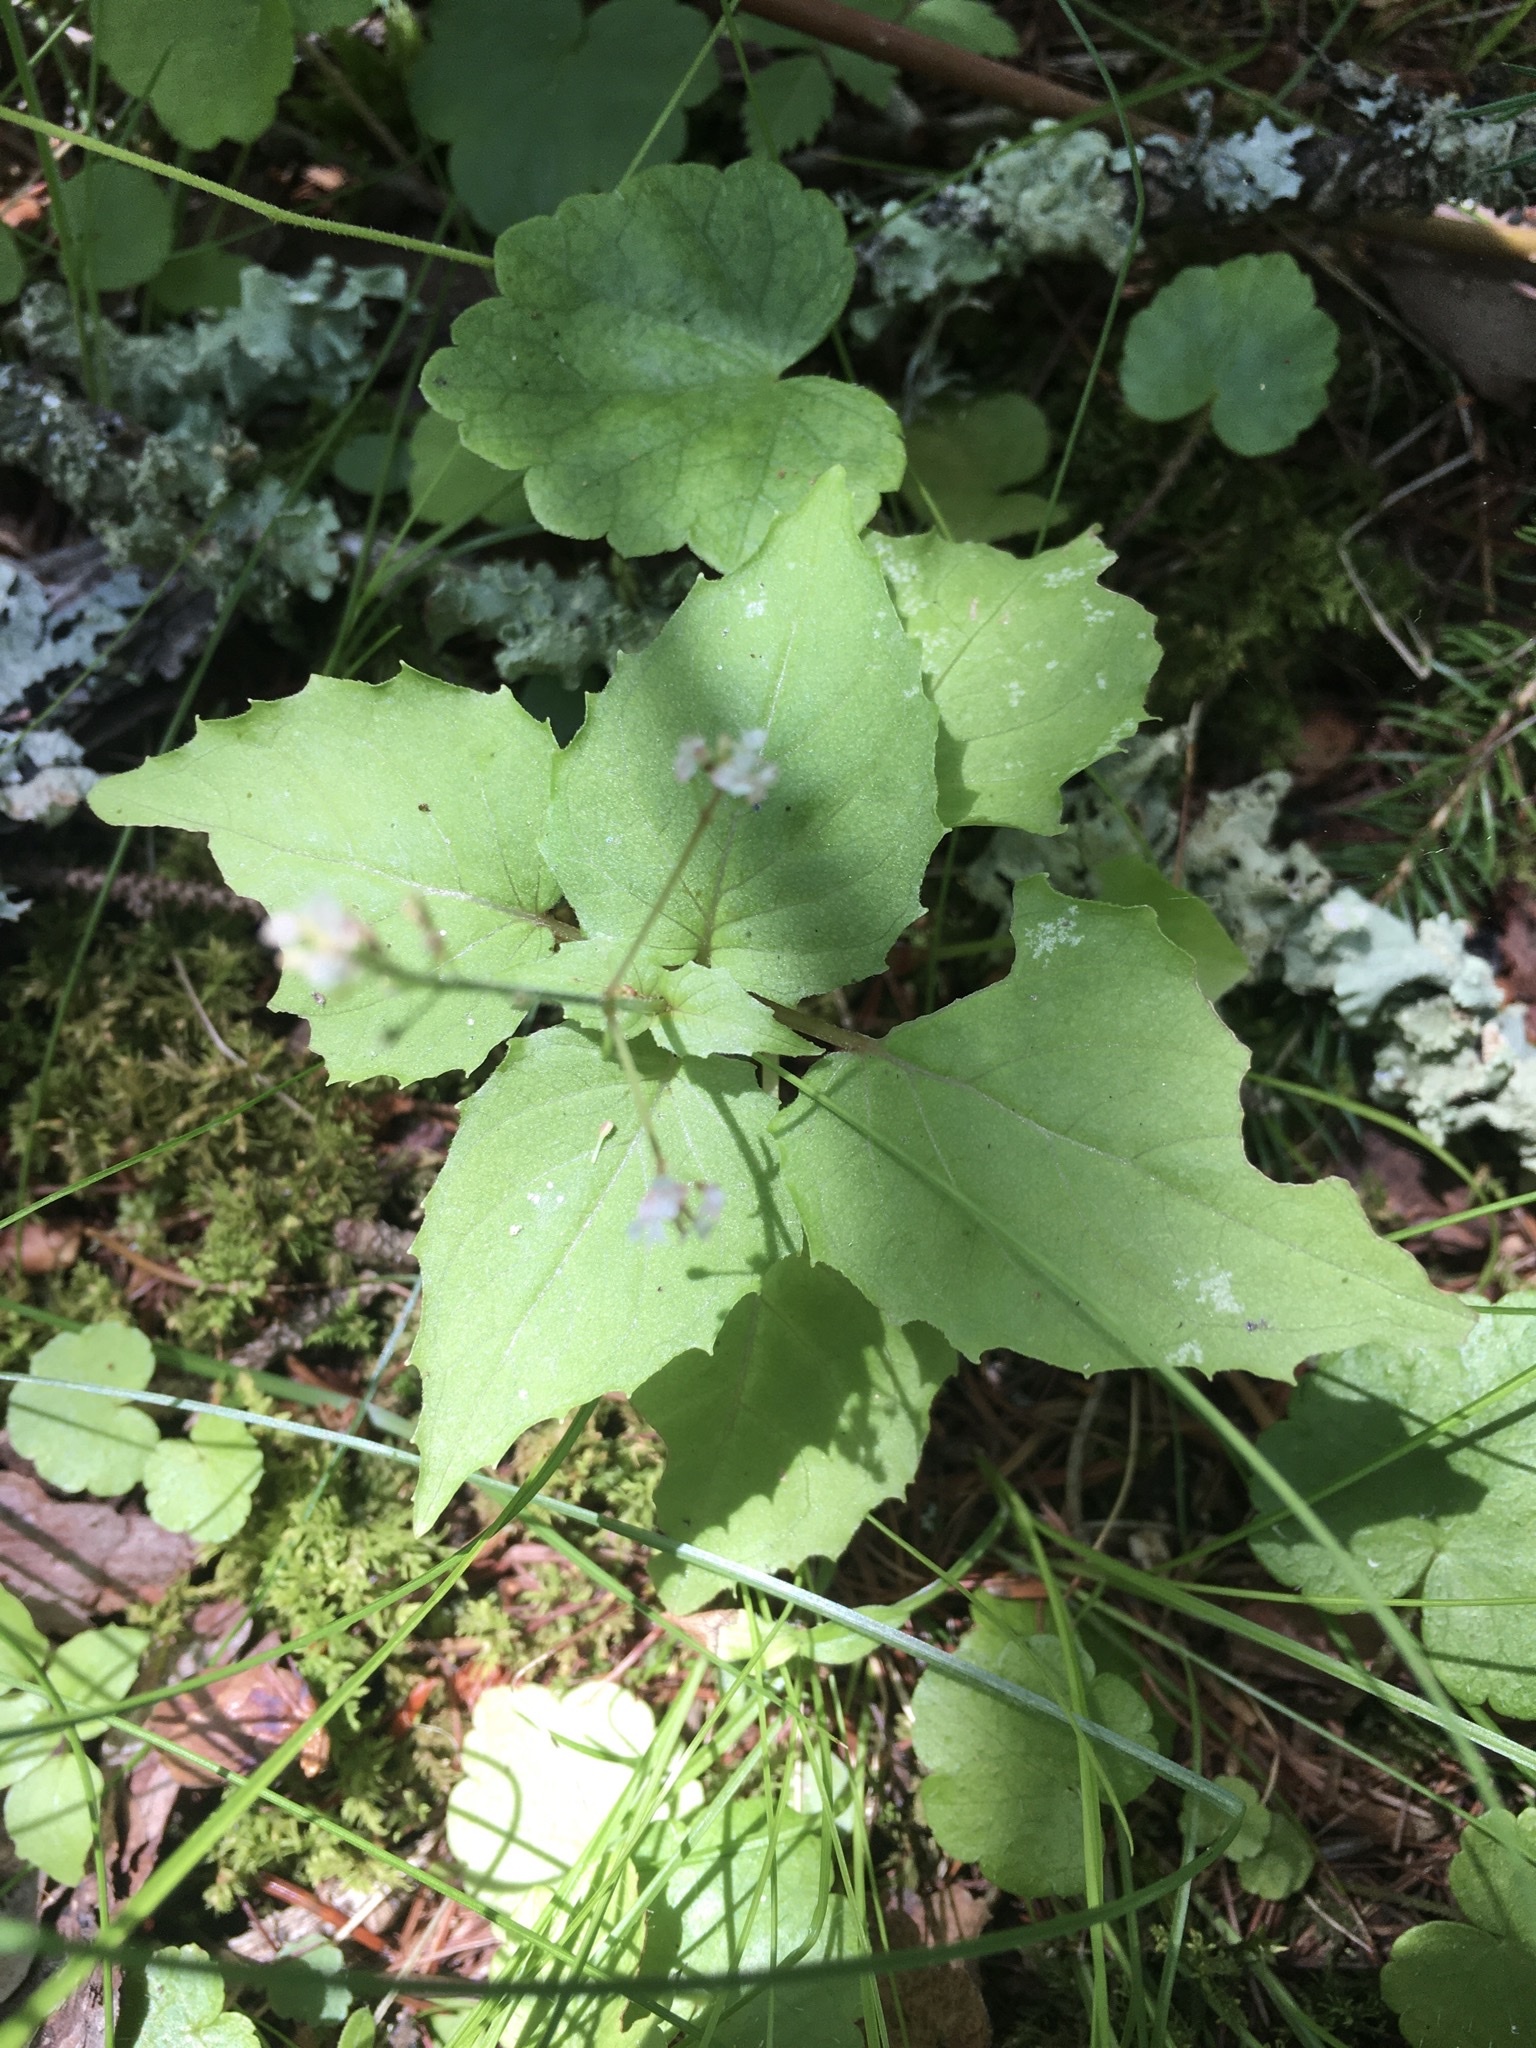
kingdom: Plantae
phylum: Tracheophyta
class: Magnoliopsida
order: Myrtales
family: Onagraceae
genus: Circaea
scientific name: Circaea alpina
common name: Alpine enchanter's-nightshade
